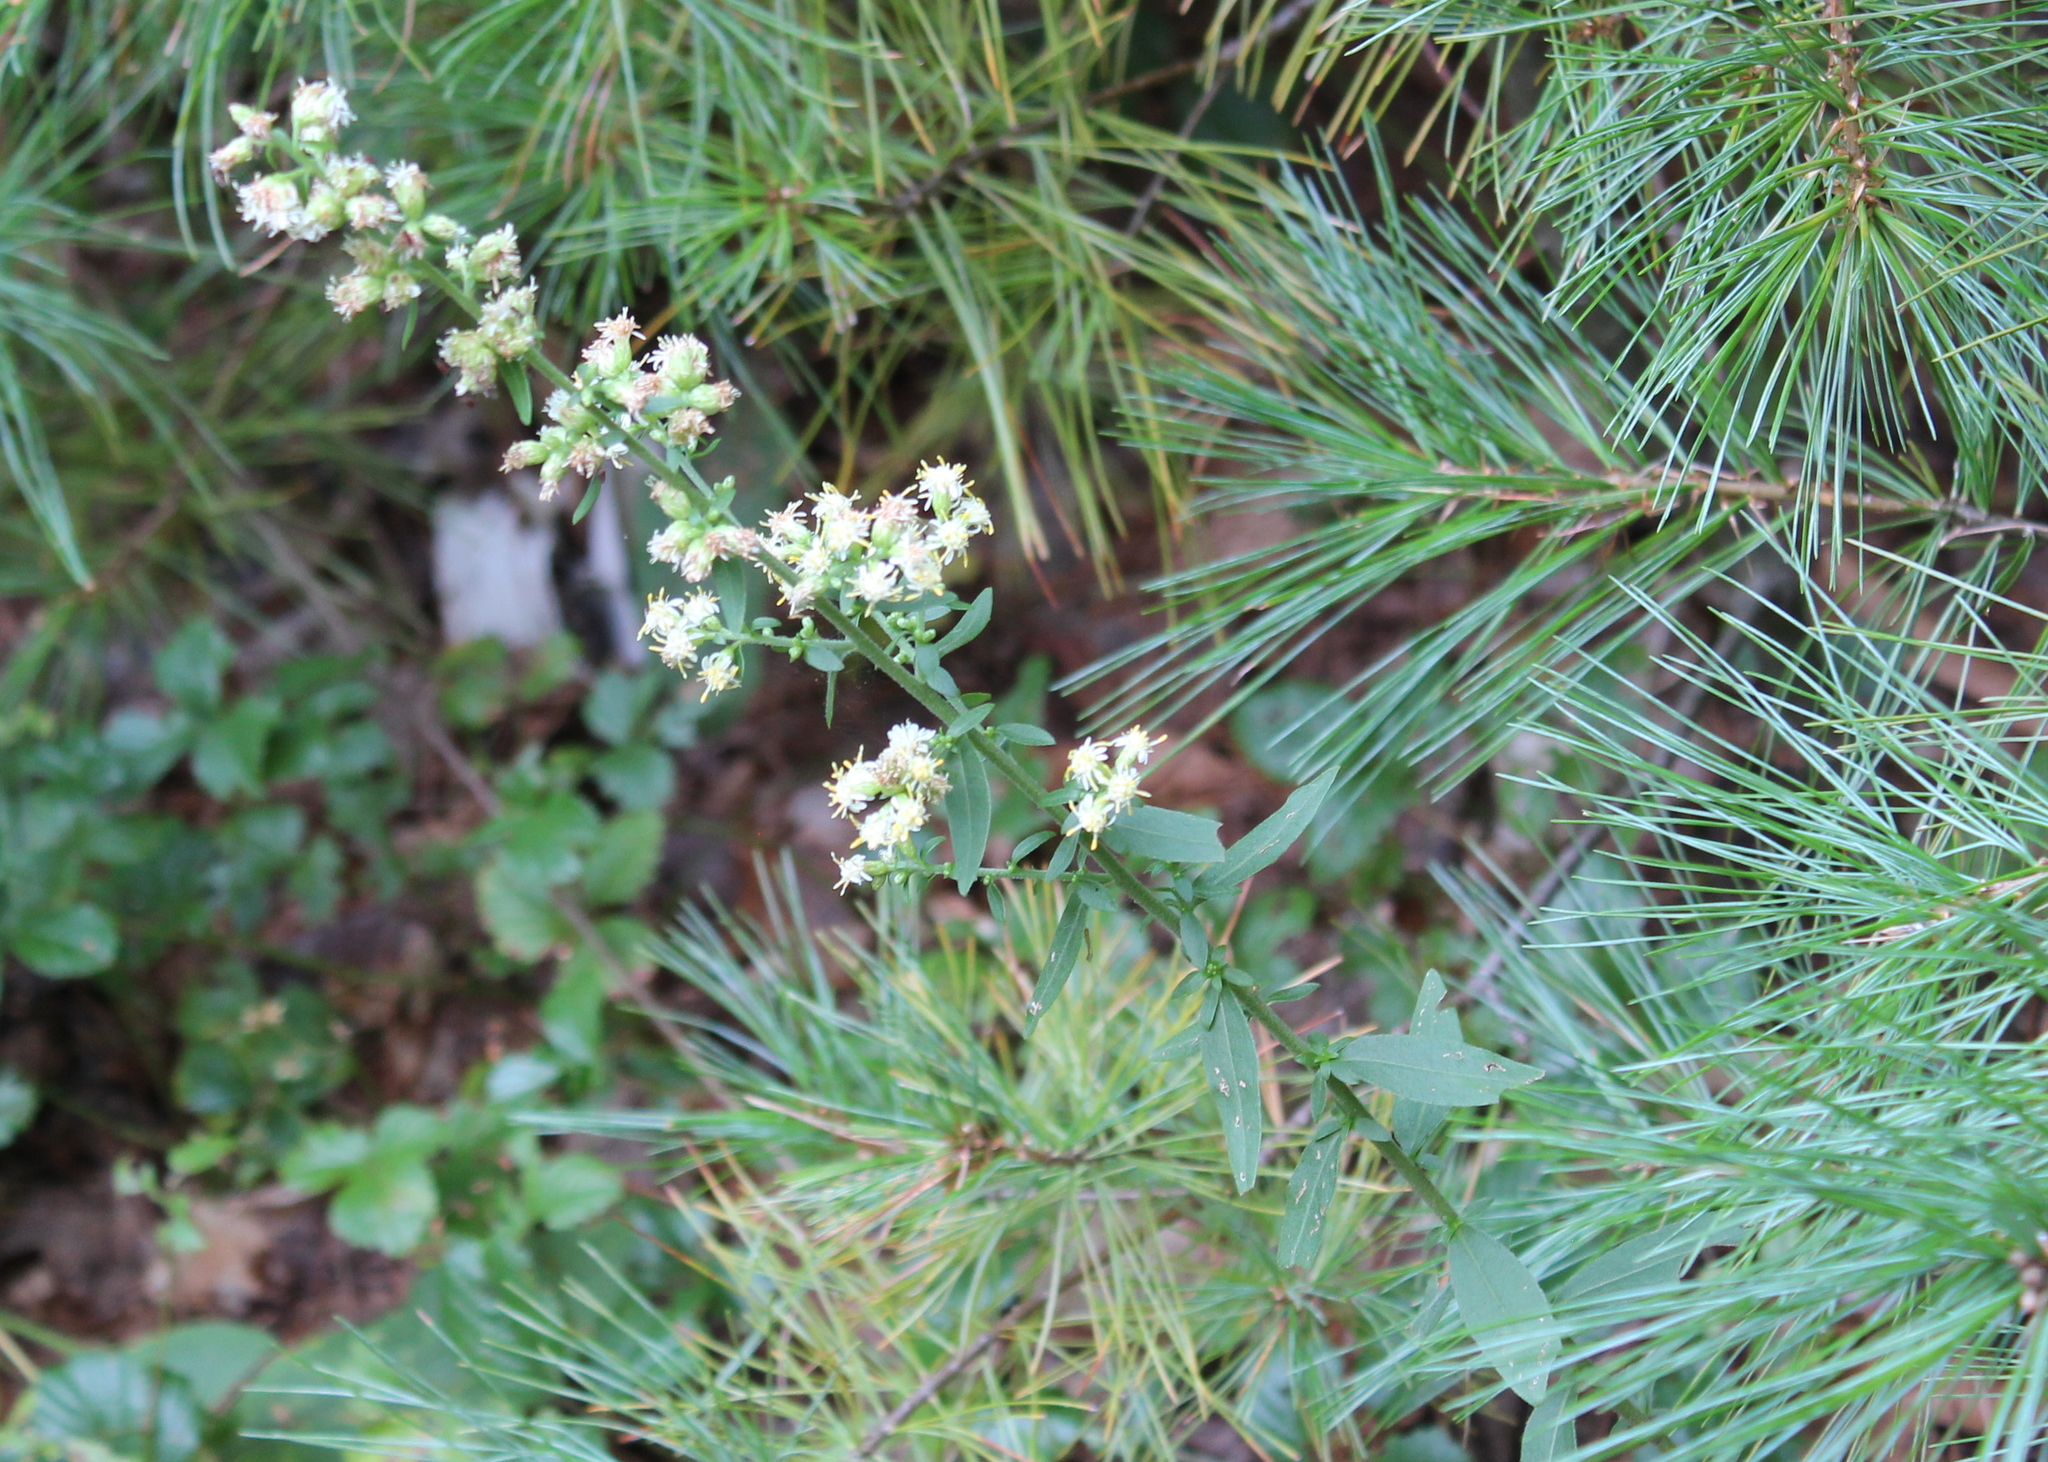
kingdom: Plantae
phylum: Tracheophyta
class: Magnoliopsida
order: Asterales
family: Asteraceae
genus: Solidago
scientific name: Solidago bicolor
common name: Silverrod
